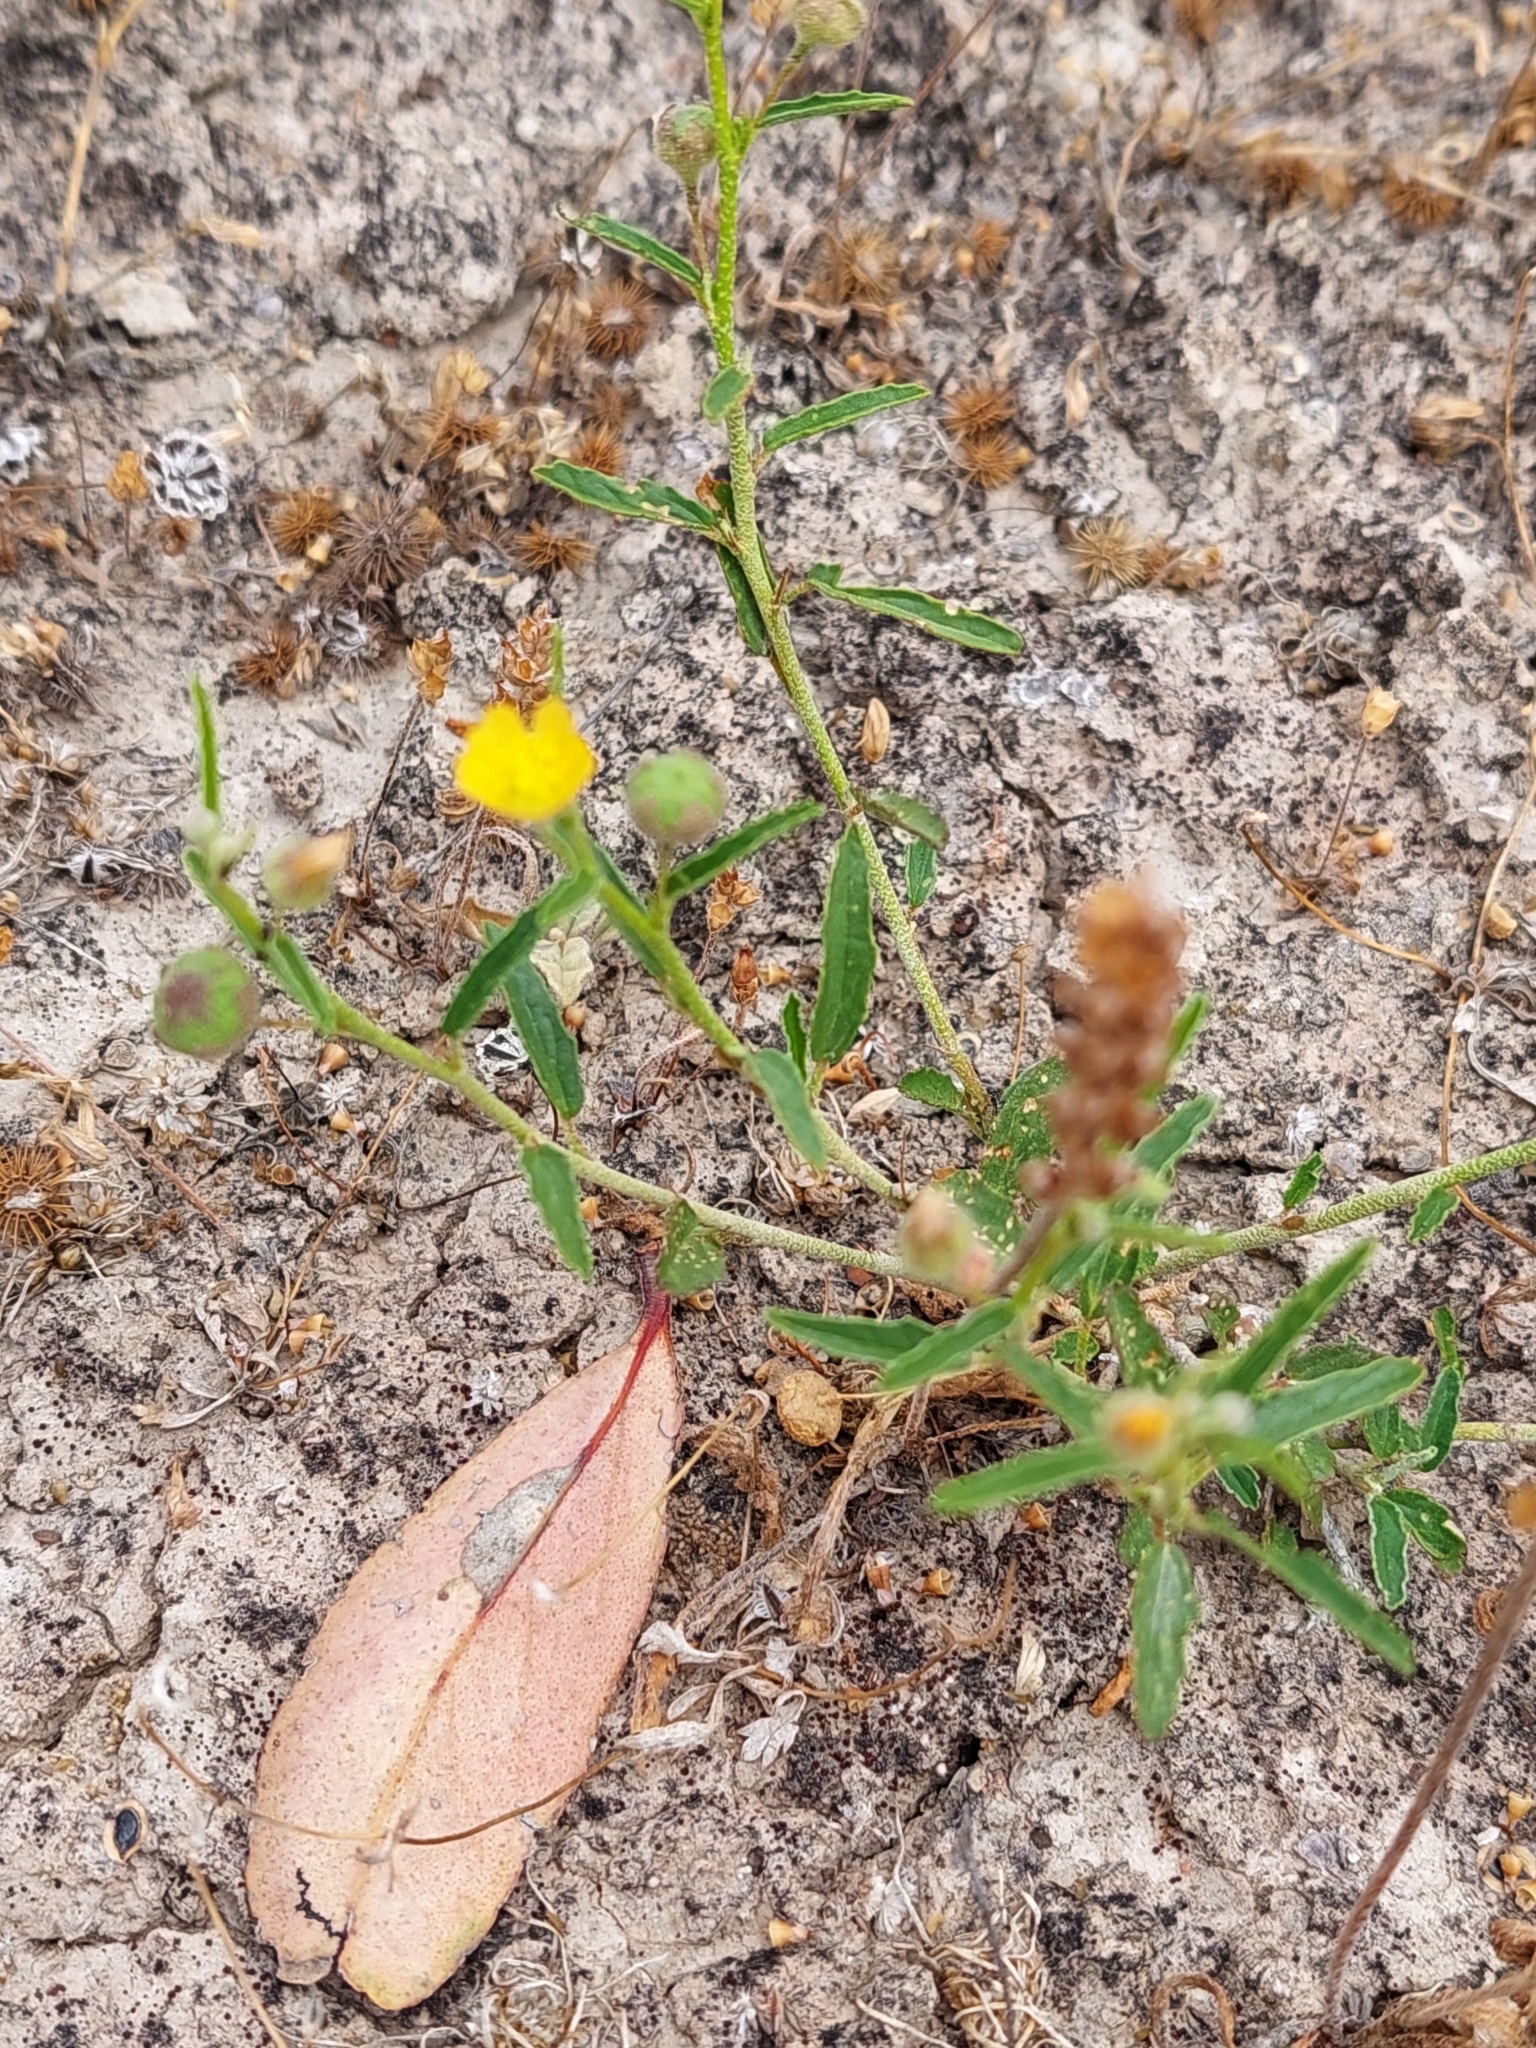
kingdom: Plantae
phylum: Tracheophyta
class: Magnoliopsida
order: Malvales
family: Malvaceae
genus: Sida
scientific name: Sida trichopoda
